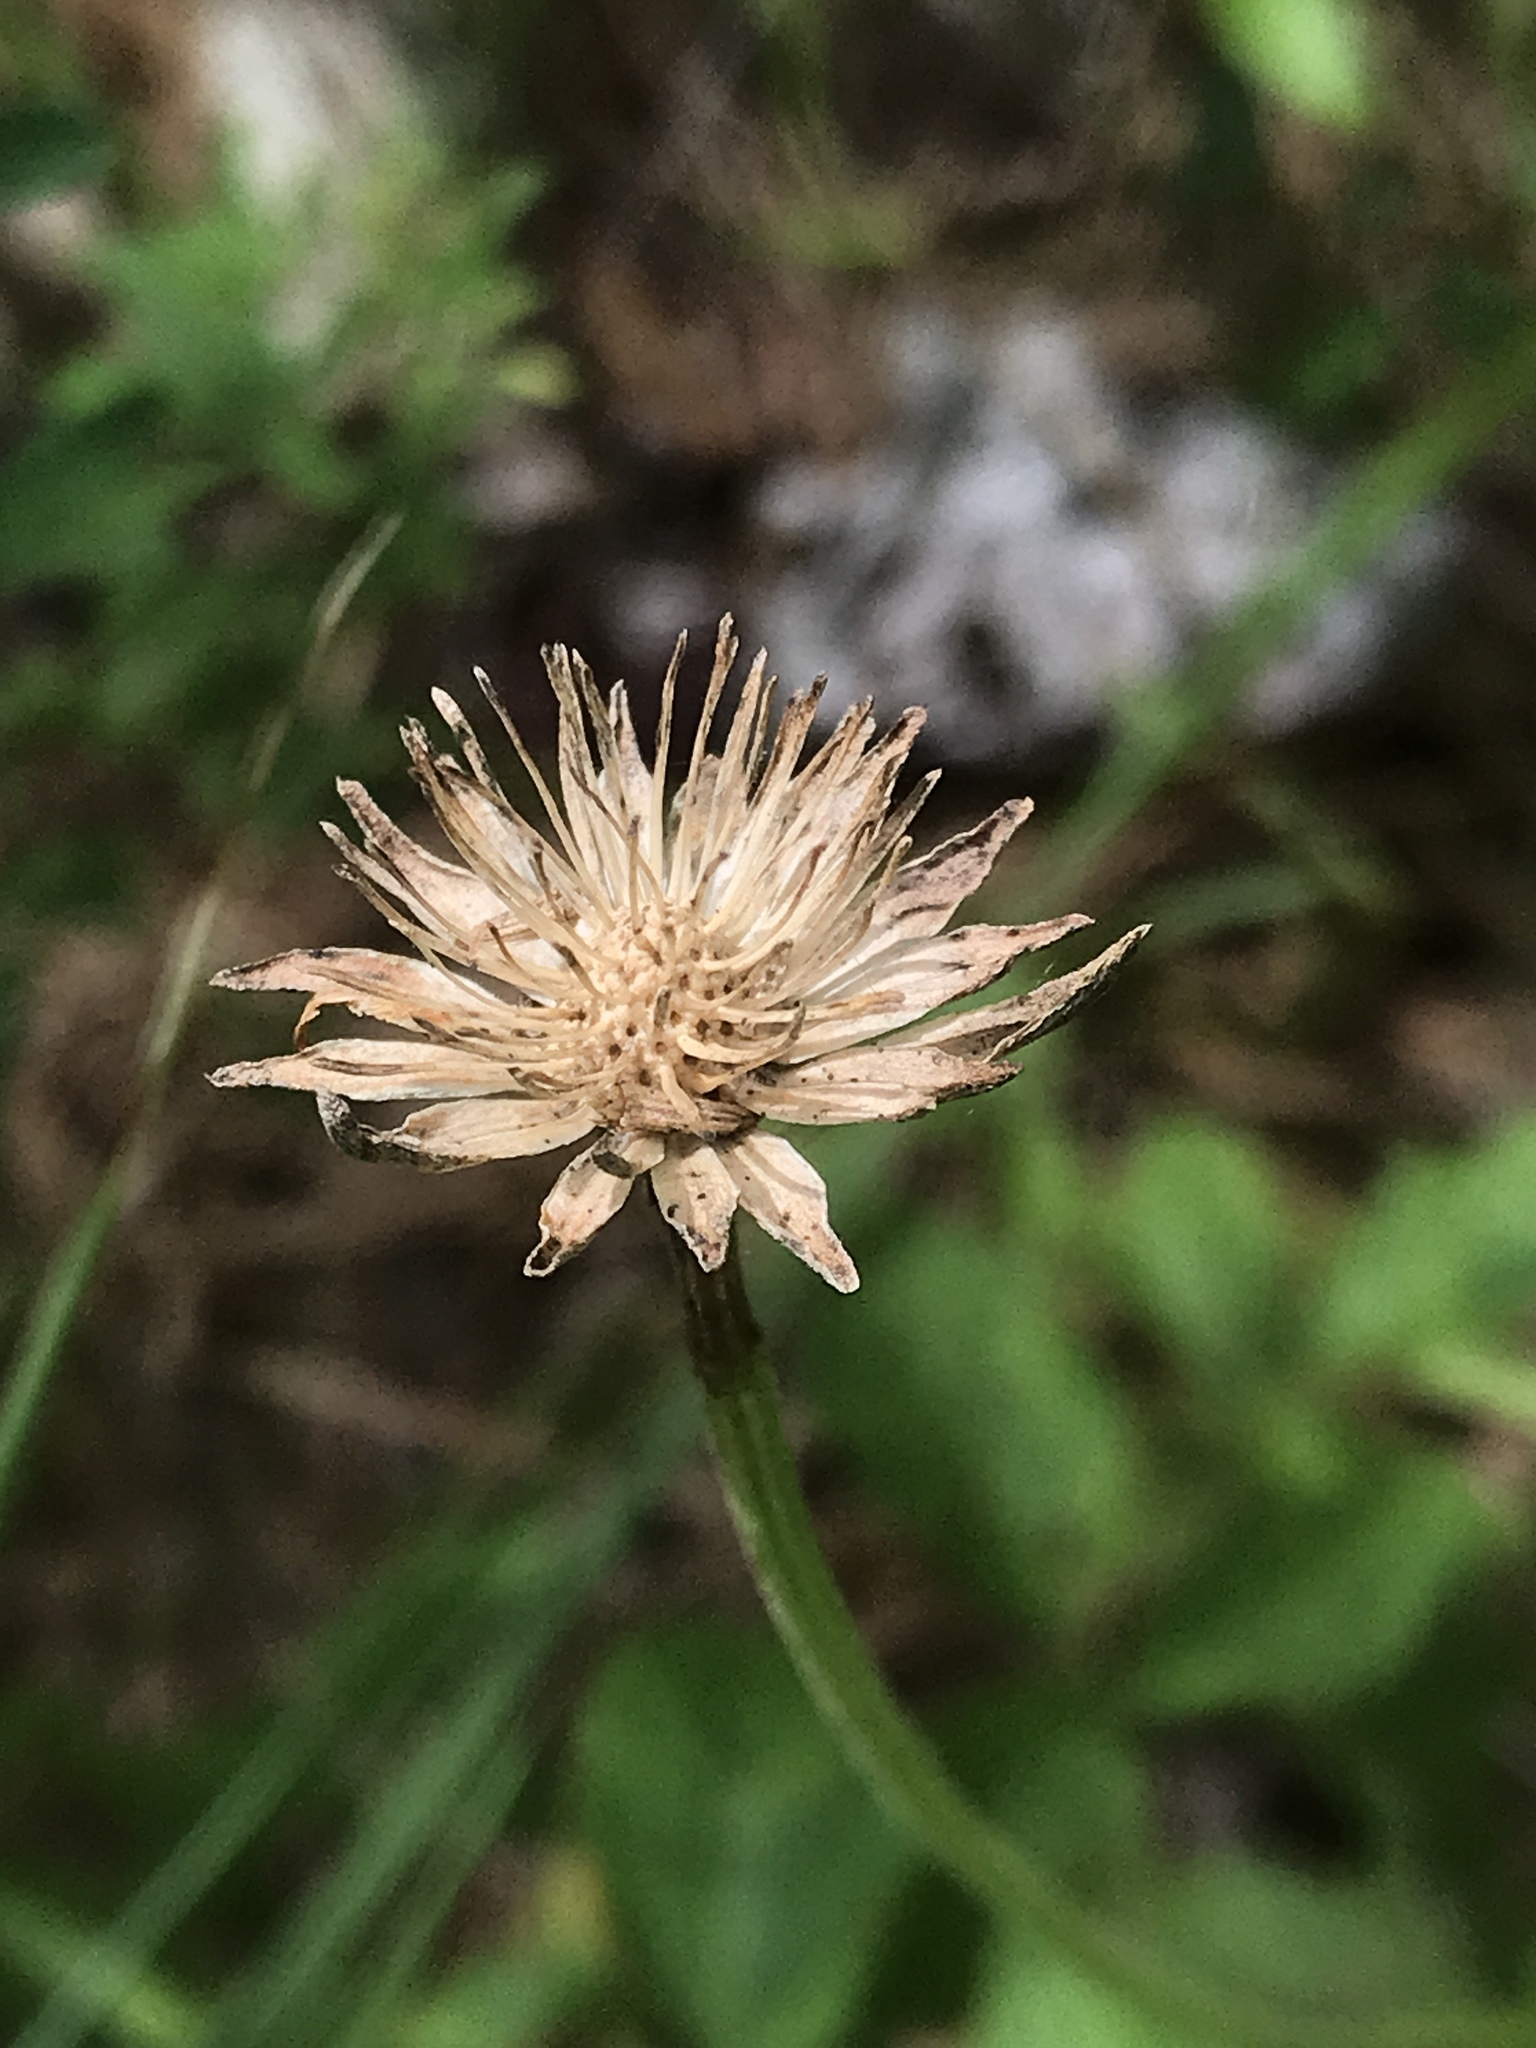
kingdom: Plantae
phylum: Tracheophyta
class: Magnoliopsida
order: Asterales
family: Asteraceae
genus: Marshallia
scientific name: Marshallia obovata
